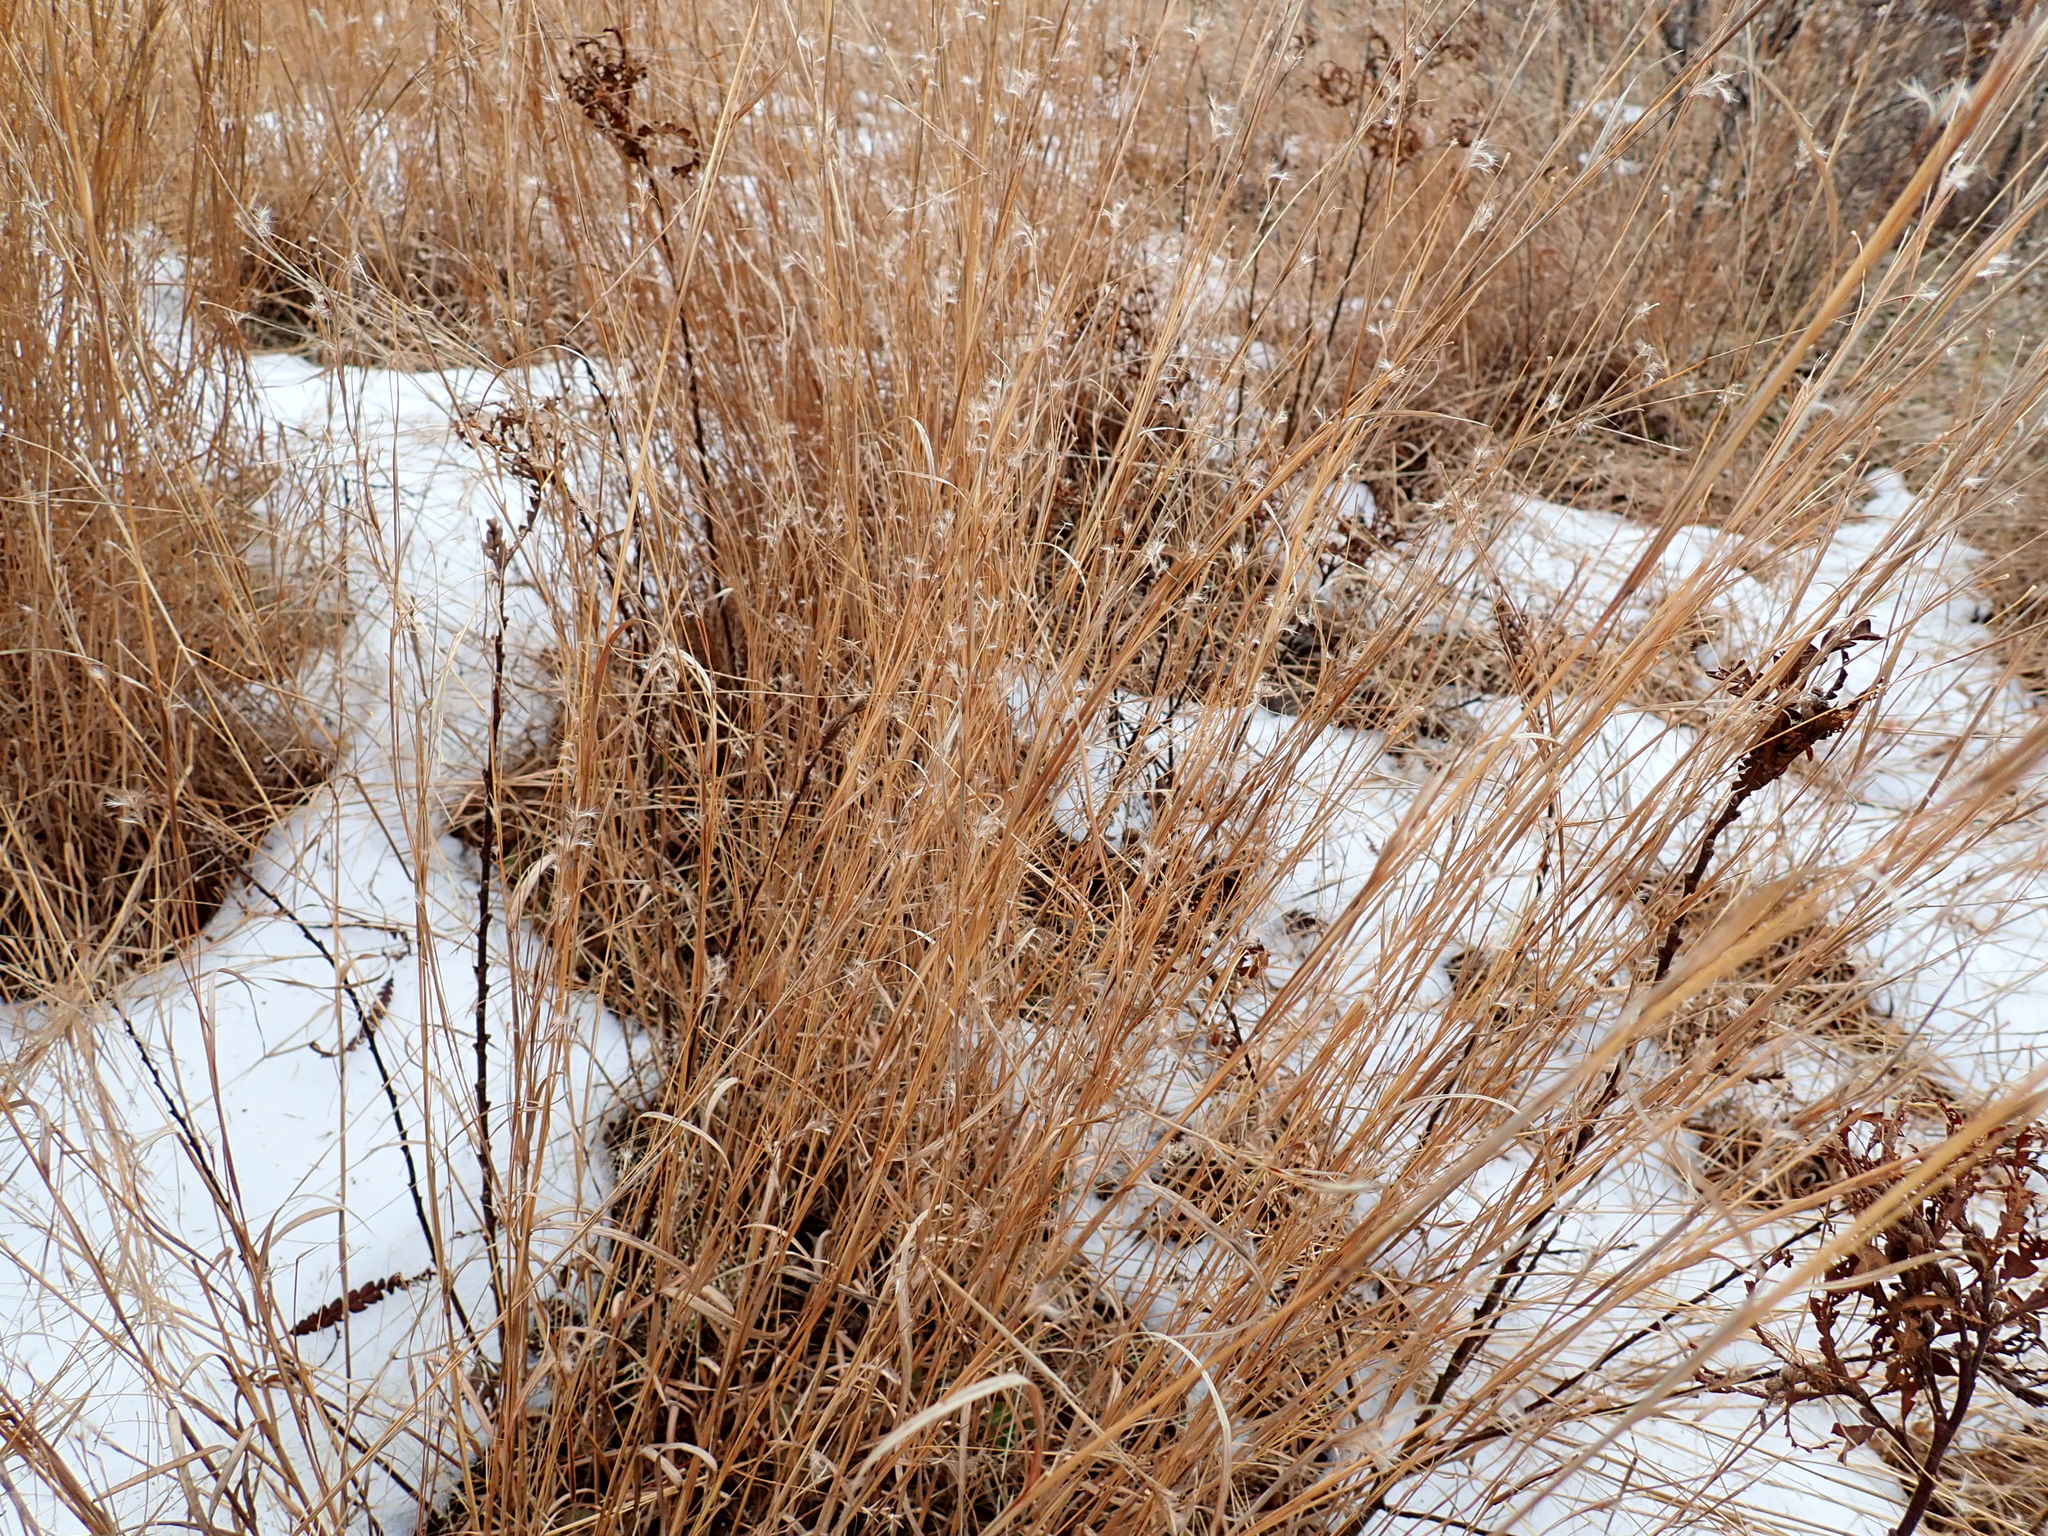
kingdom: Plantae
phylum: Tracheophyta
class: Liliopsida
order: Poales
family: Poaceae
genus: Schizachyrium
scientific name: Schizachyrium scoparium
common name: Little bluestem
